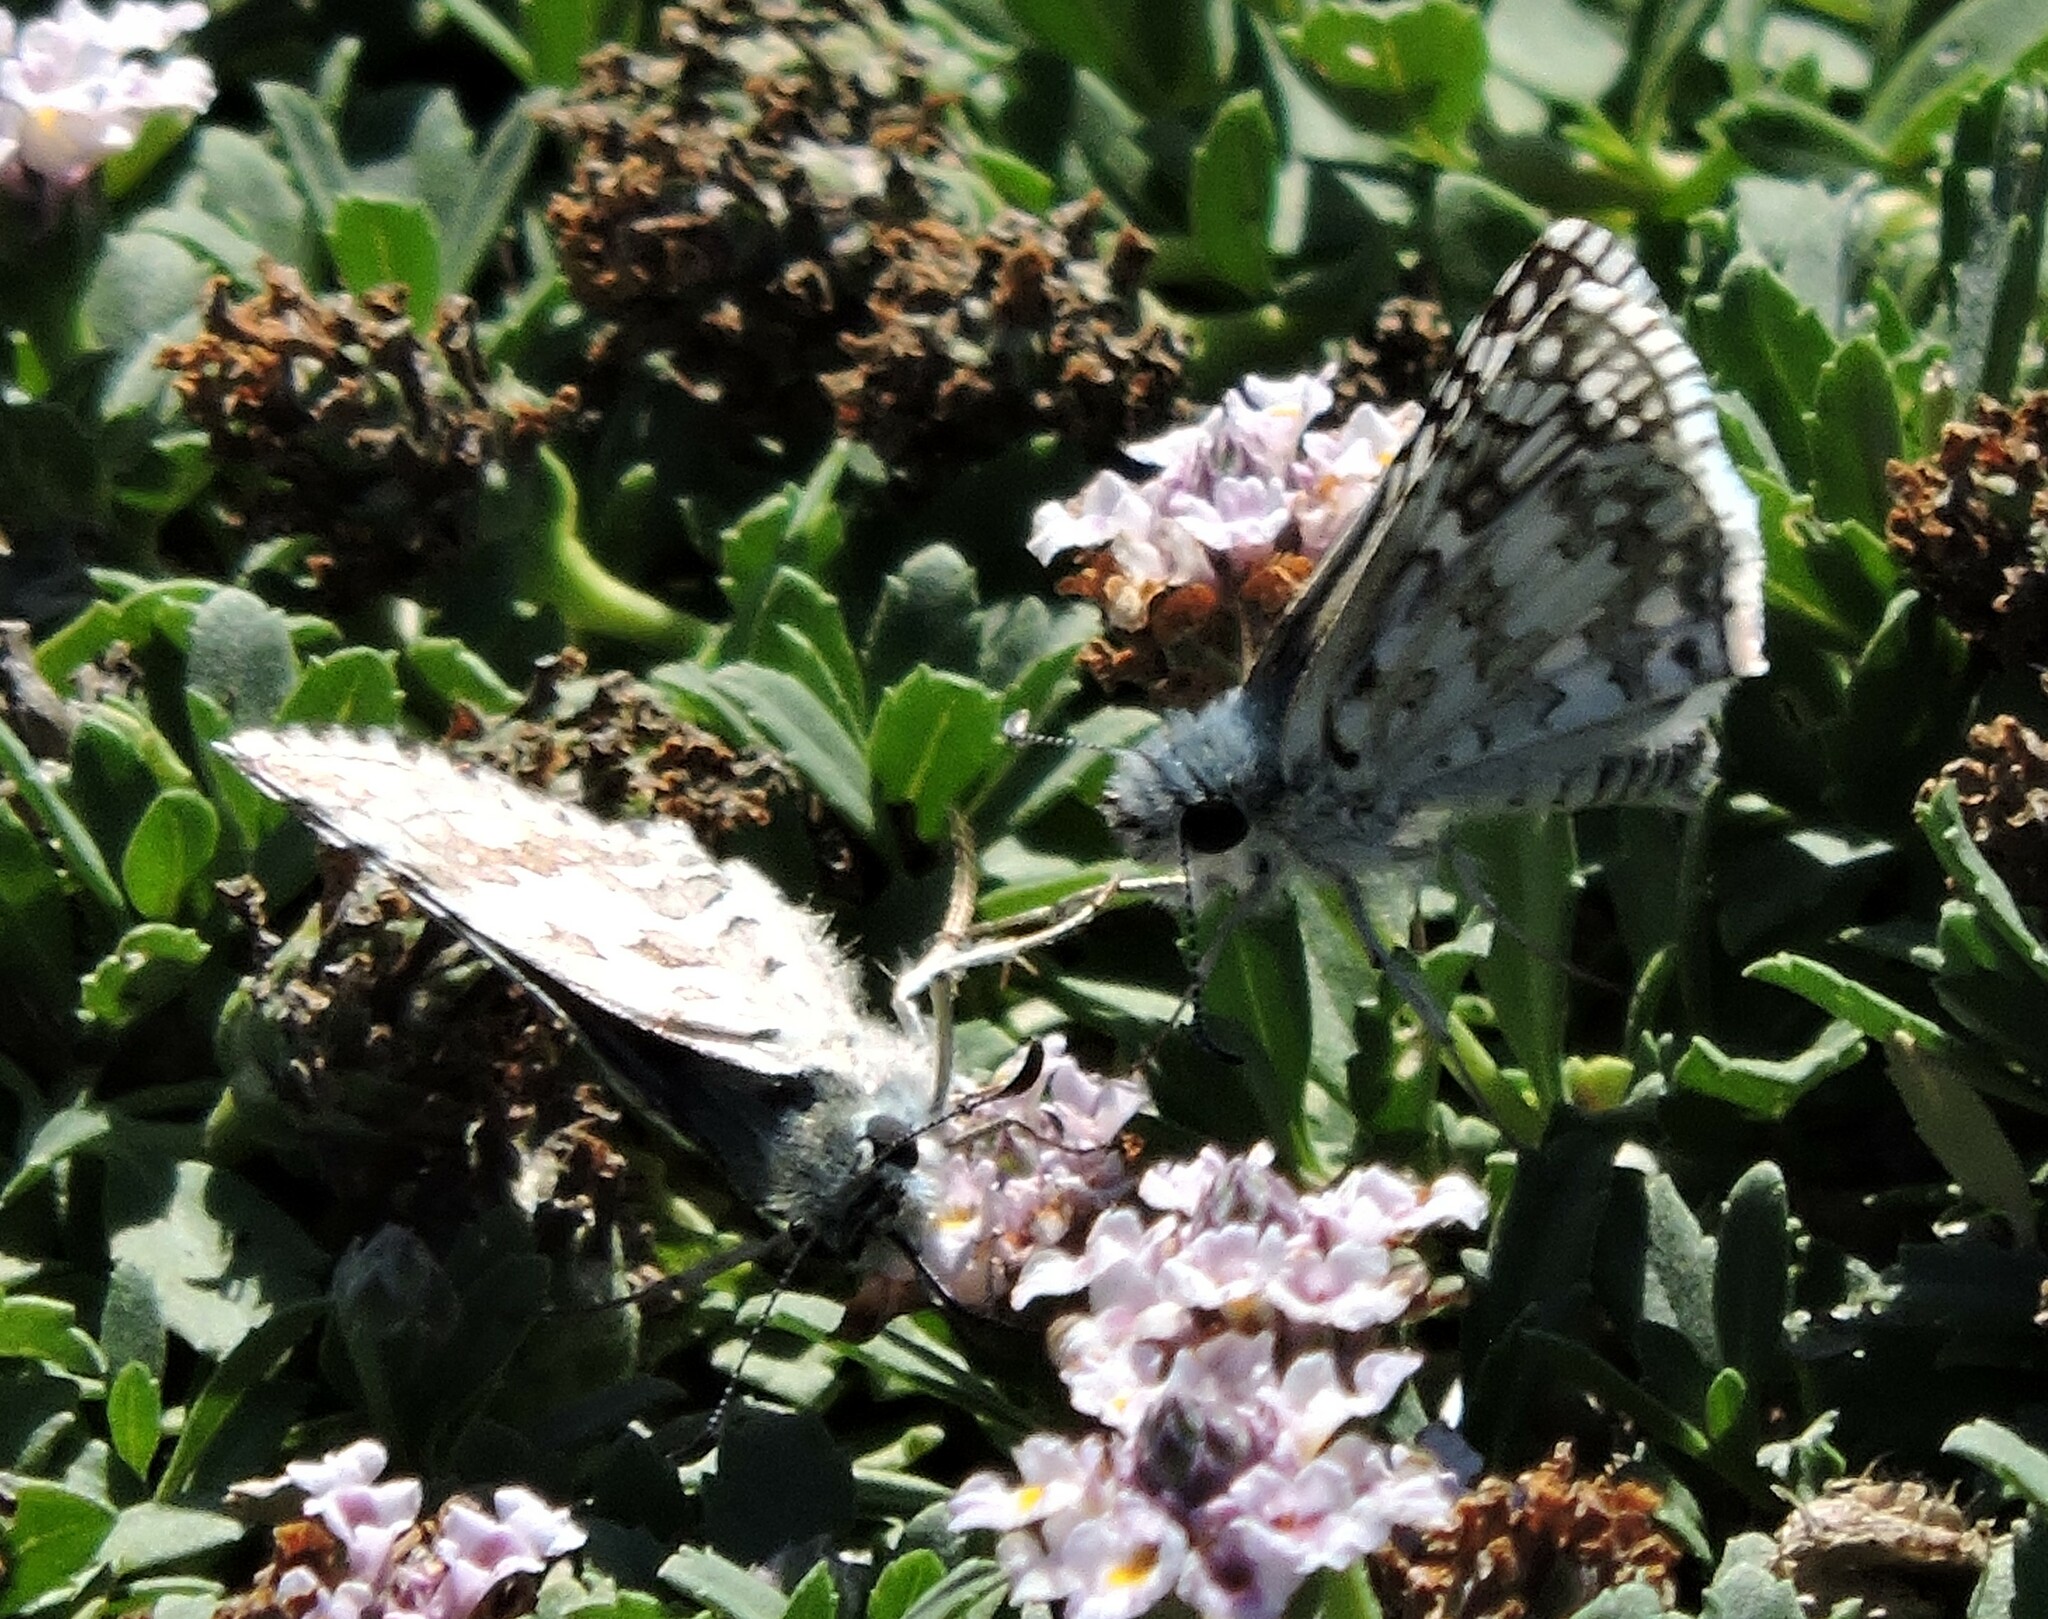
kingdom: Animalia
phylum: Arthropoda
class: Insecta
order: Lepidoptera
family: Hesperiidae
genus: Burnsius
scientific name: Burnsius communis
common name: Common checkered-skipper
